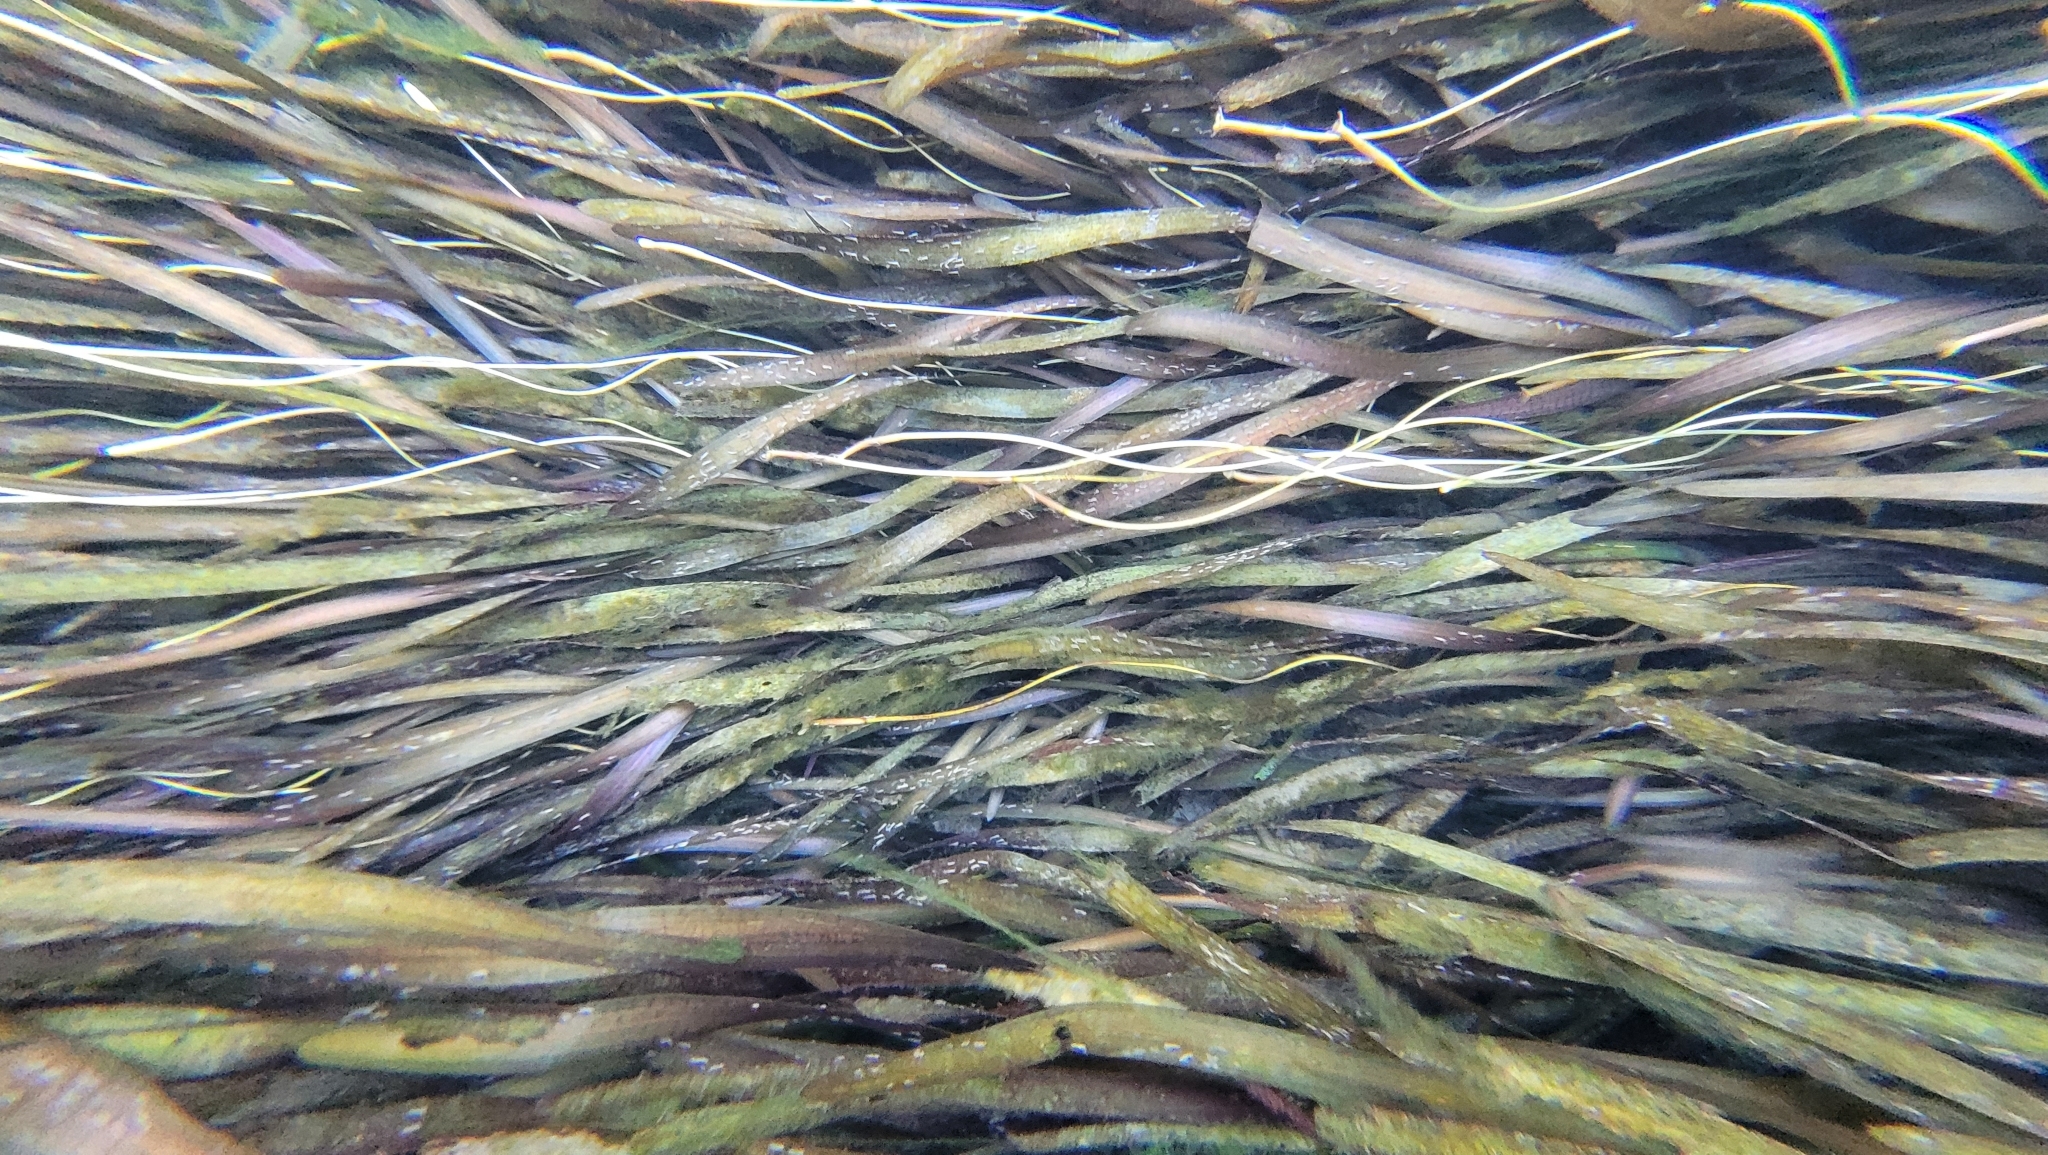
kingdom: Plantae
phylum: Tracheophyta
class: Liliopsida
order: Alismatales
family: Hydrocharitaceae
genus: Vallisneria
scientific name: Vallisneria americana
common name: American eelgrass
